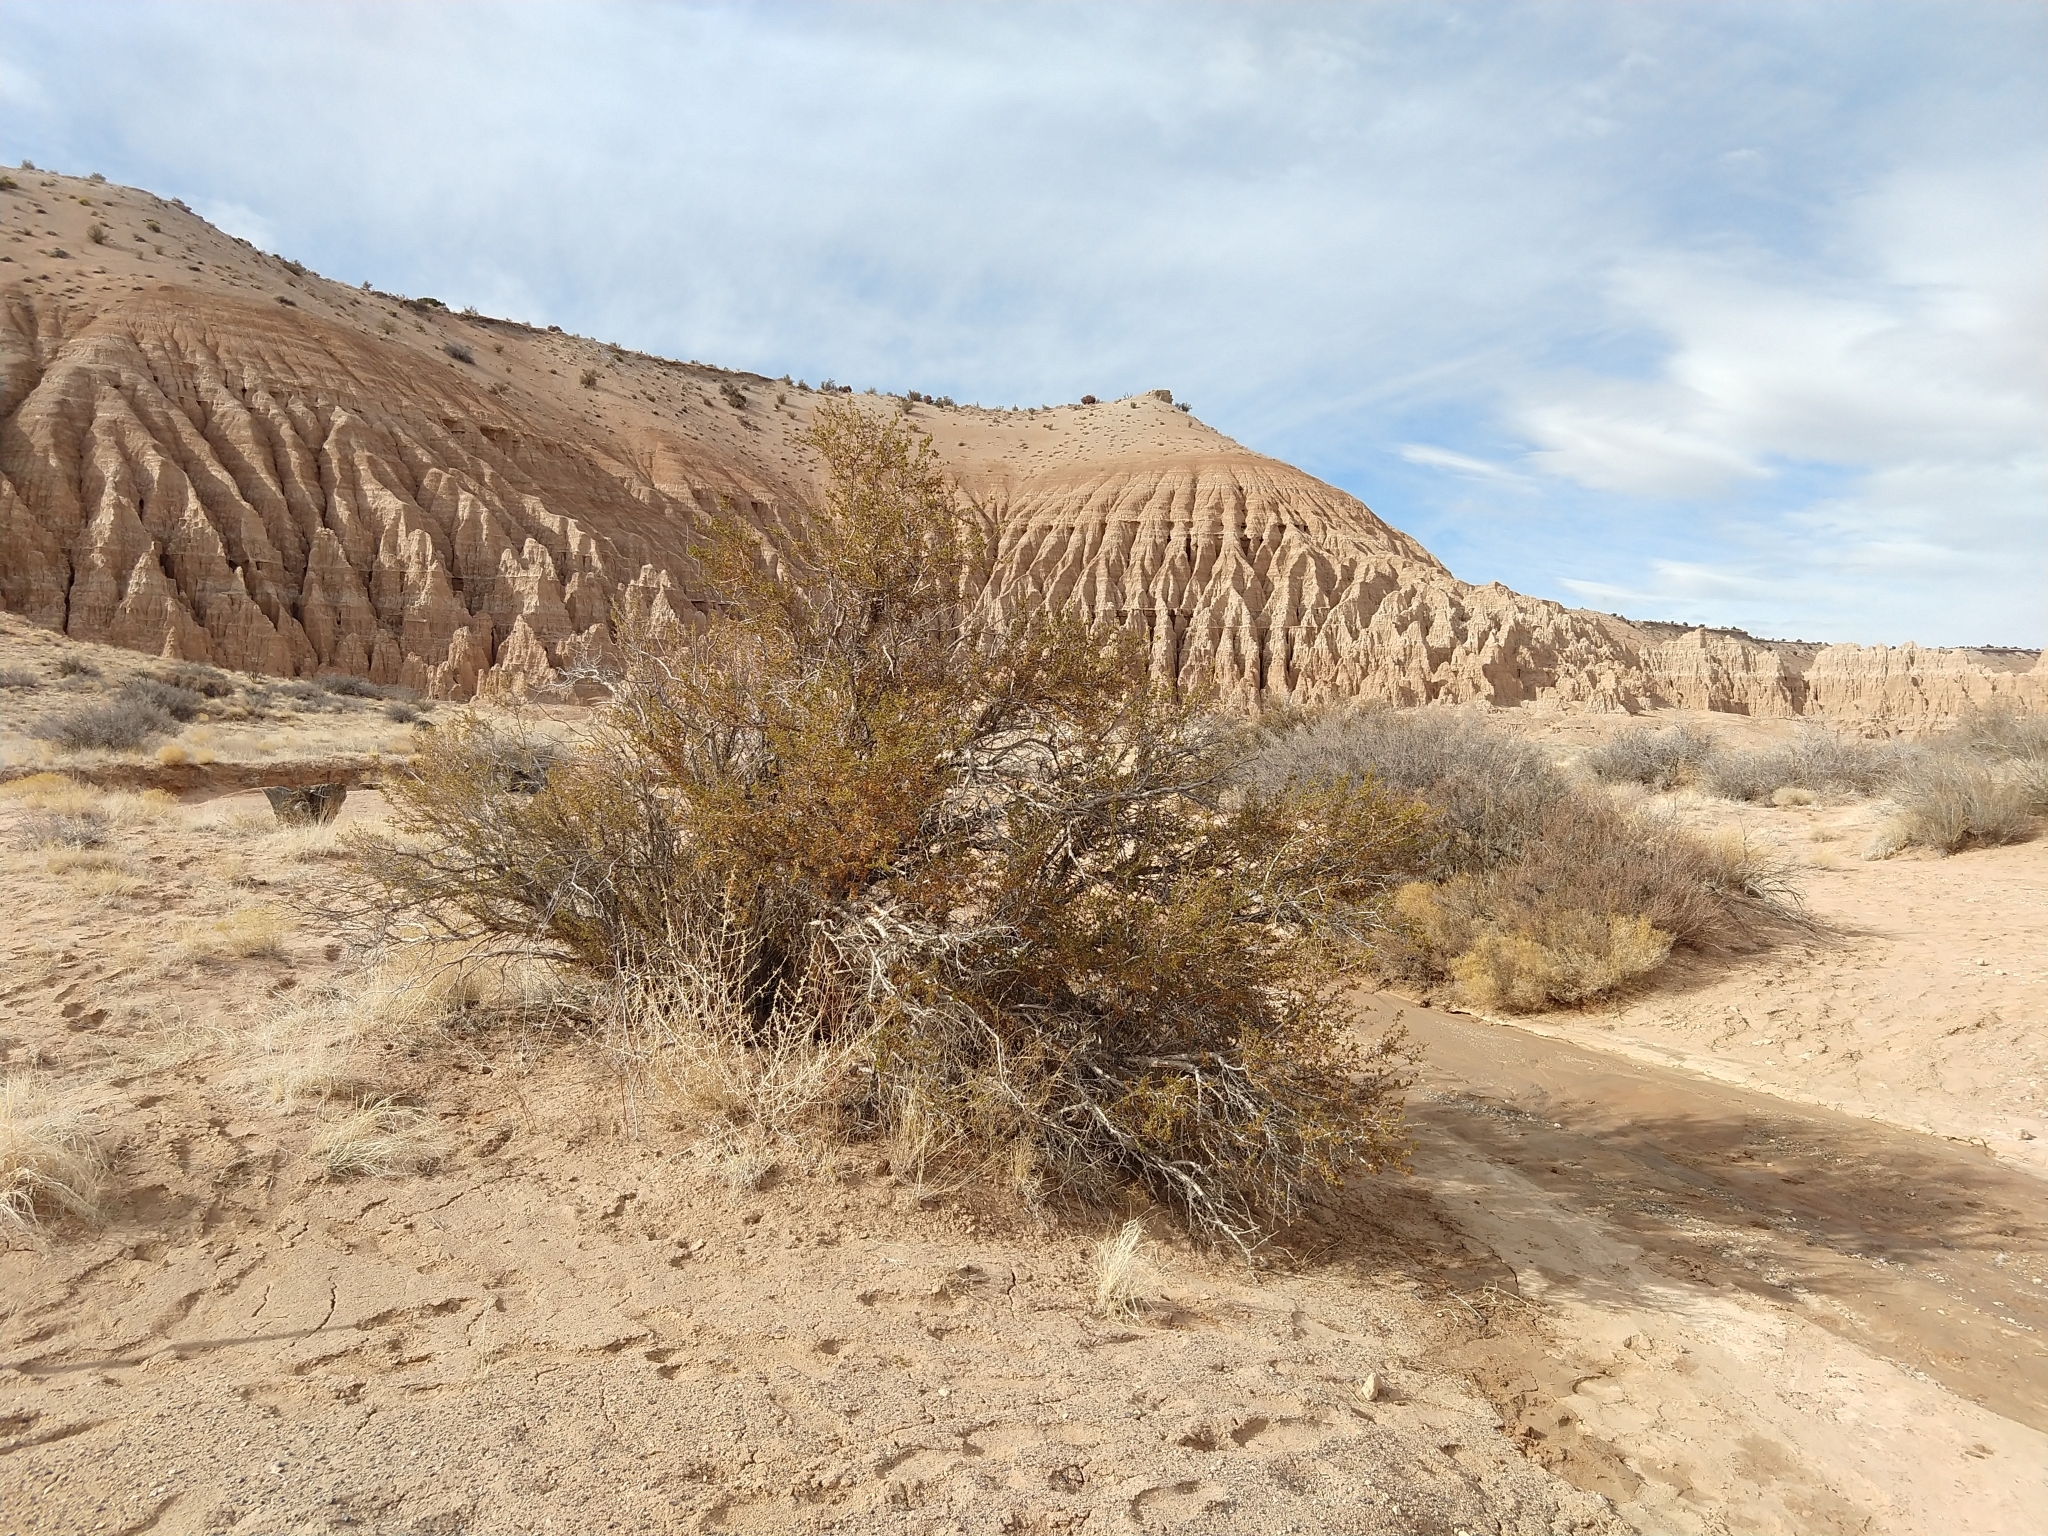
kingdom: Plantae
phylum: Tracheophyta
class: Magnoliopsida
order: Rosales
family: Rosaceae
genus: Purshia
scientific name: Purshia stansburiana
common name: Stansbury's cliffrose
